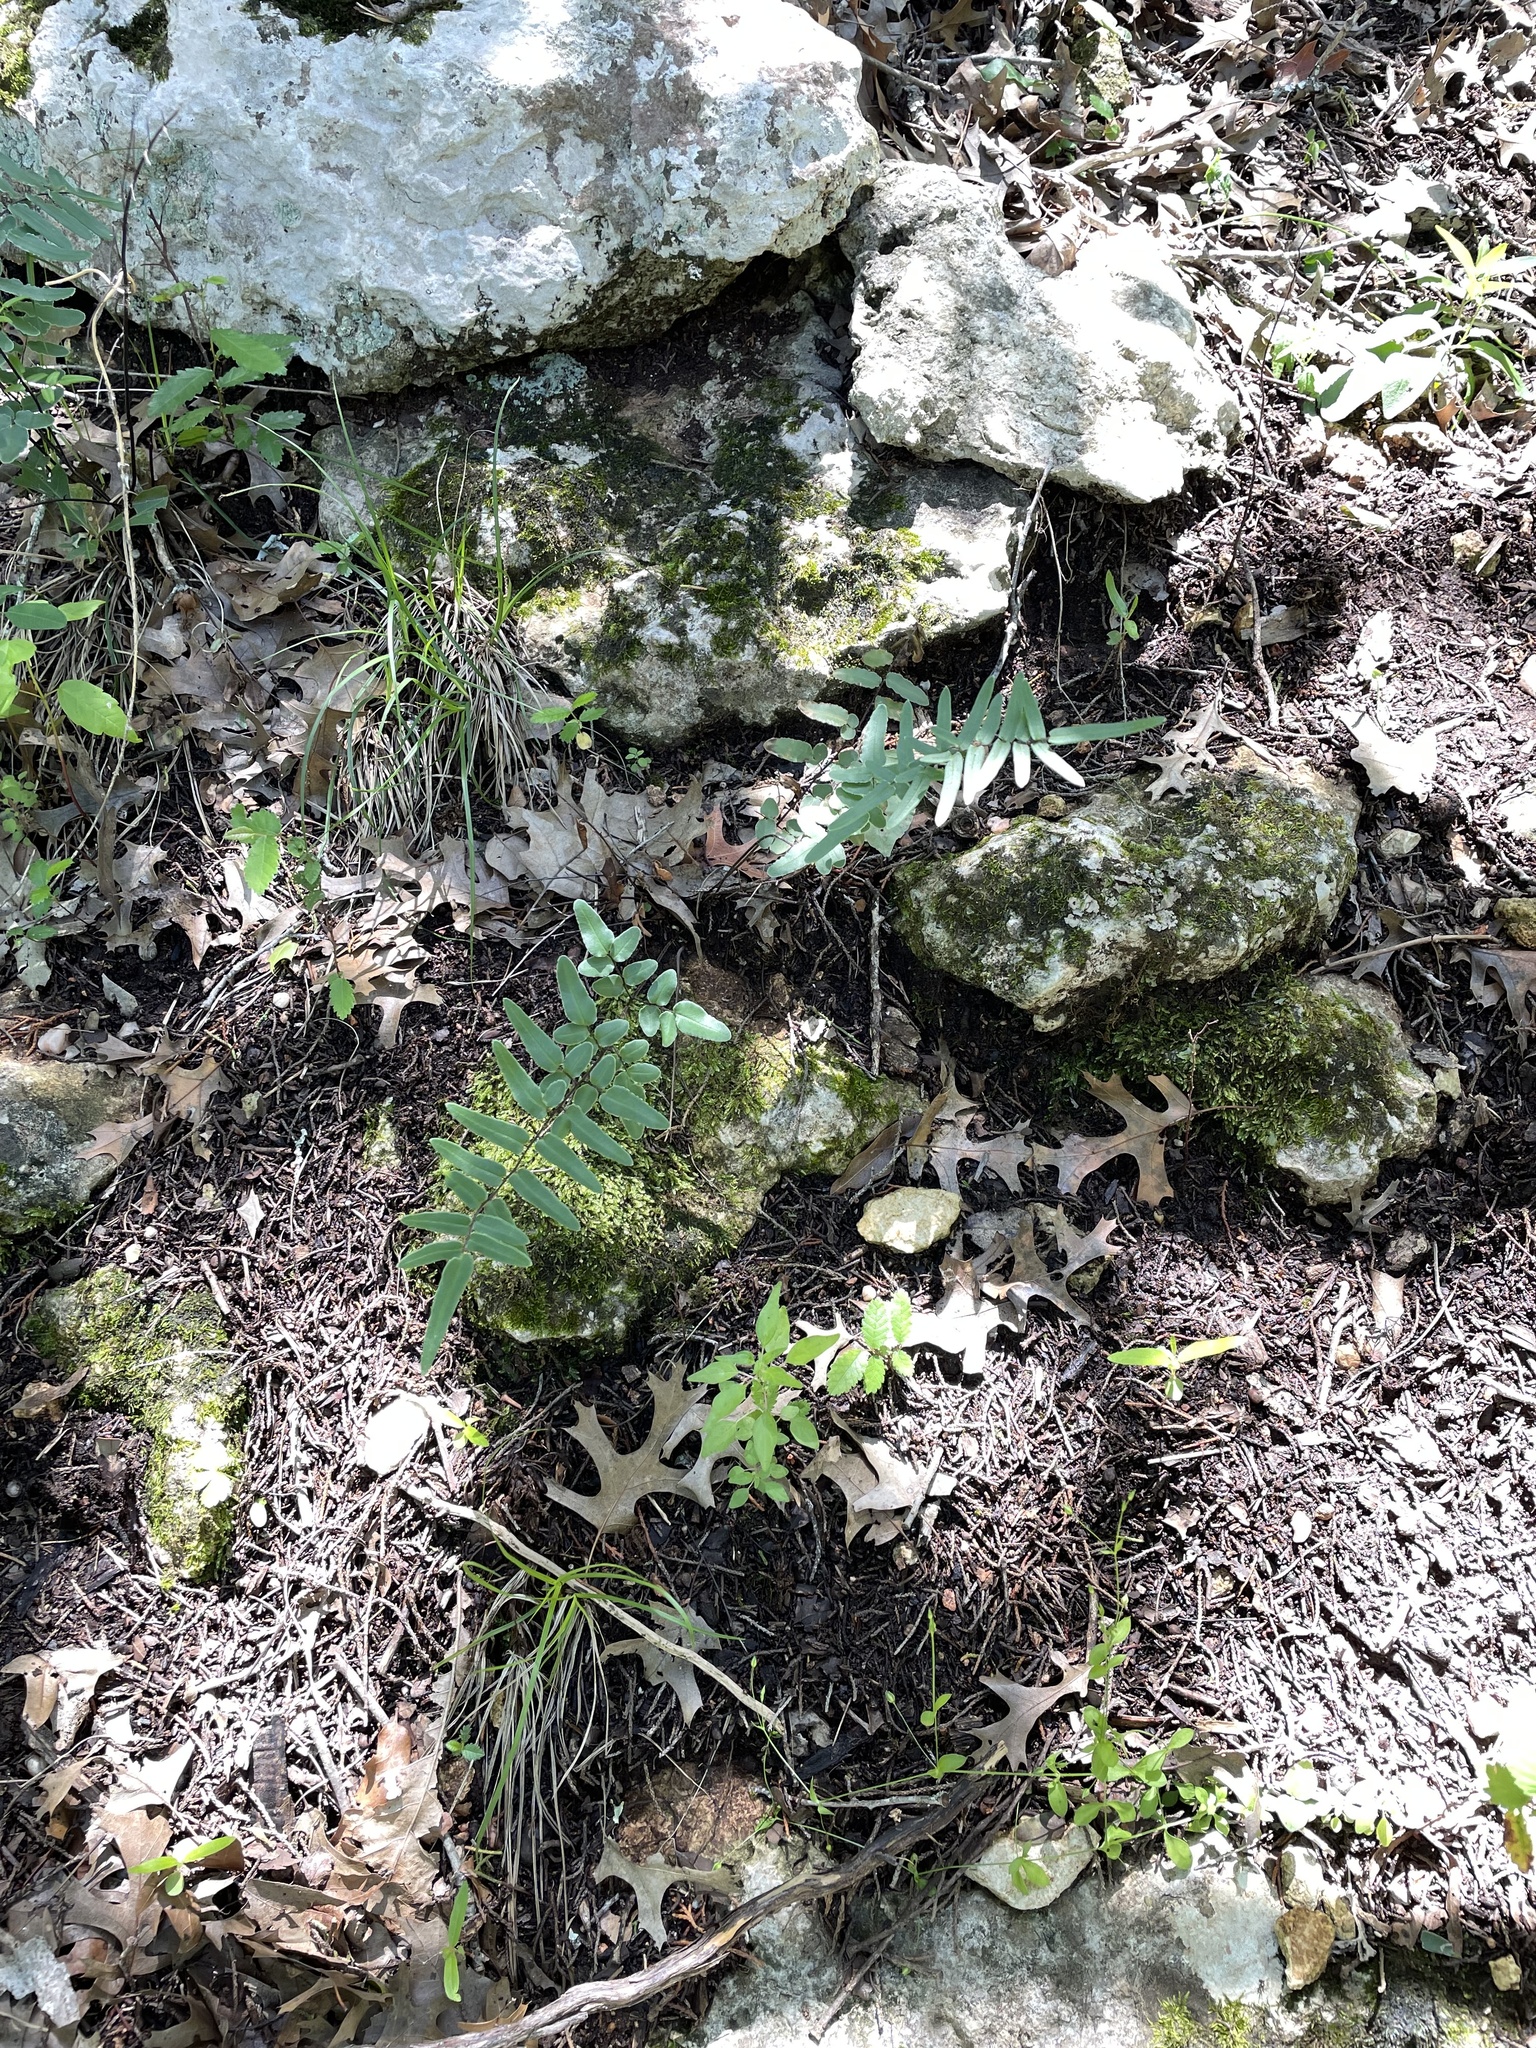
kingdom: Plantae
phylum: Tracheophyta
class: Polypodiopsida
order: Polypodiales
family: Pteridaceae
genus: Pellaea
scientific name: Pellaea atropurpurea
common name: Hairy cliffbrake
